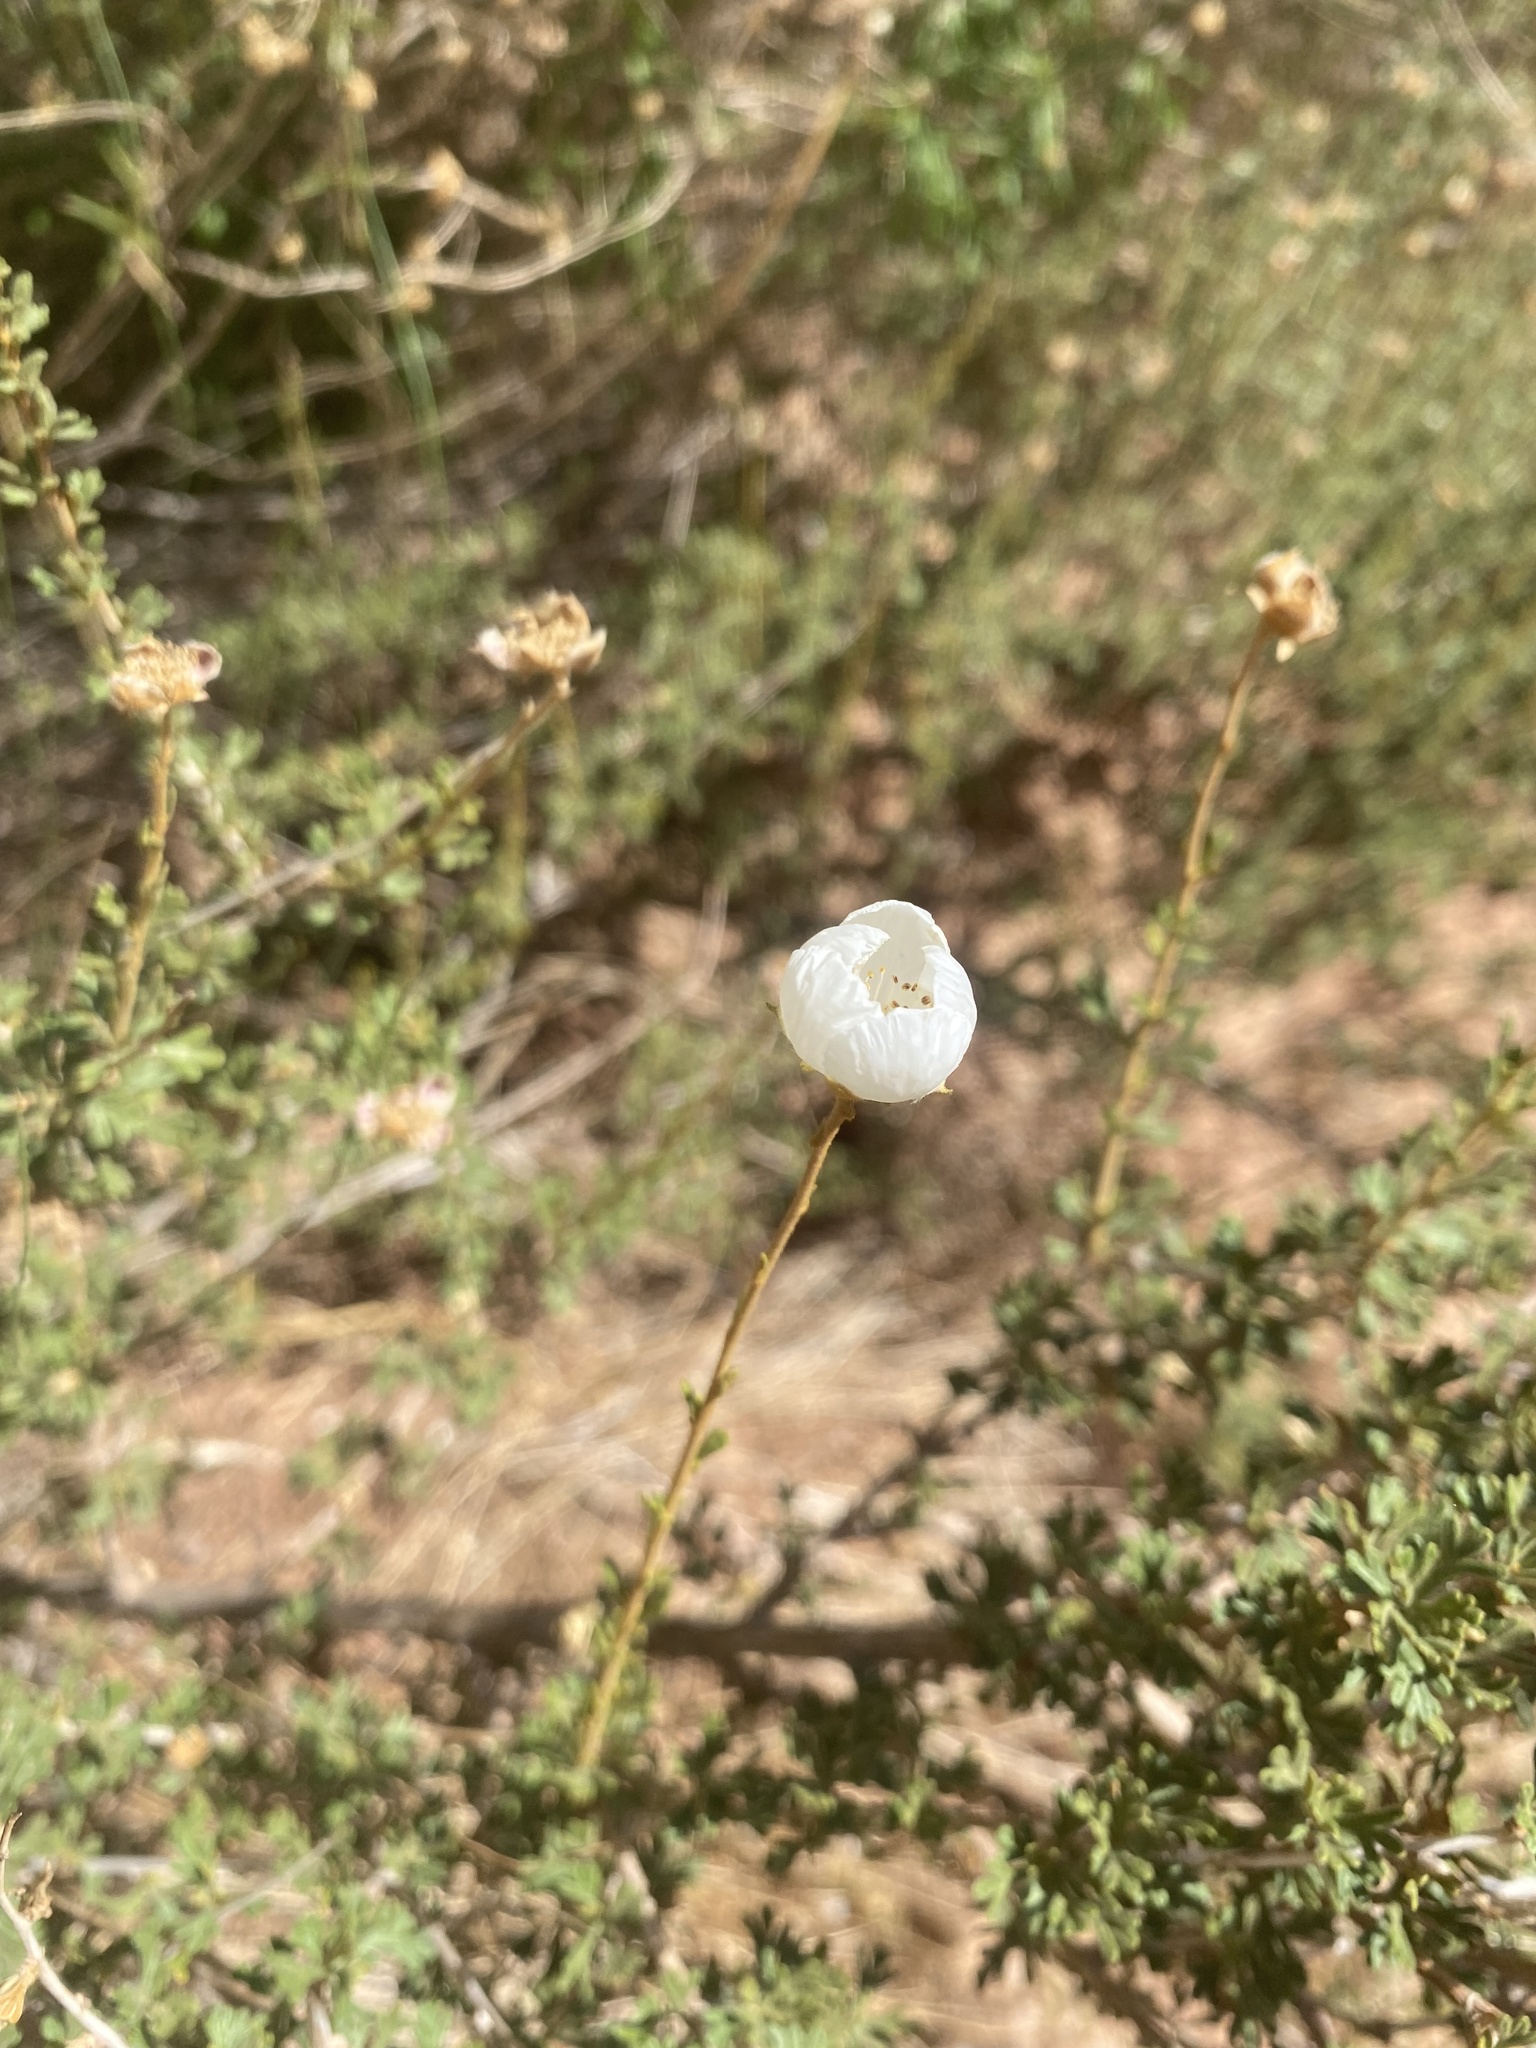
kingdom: Plantae
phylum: Tracheophyta
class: Magnoliopsida
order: Rosales
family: Rosaceae
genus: Fallugia
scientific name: Fallugia paradoxa
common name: Apache-plume
